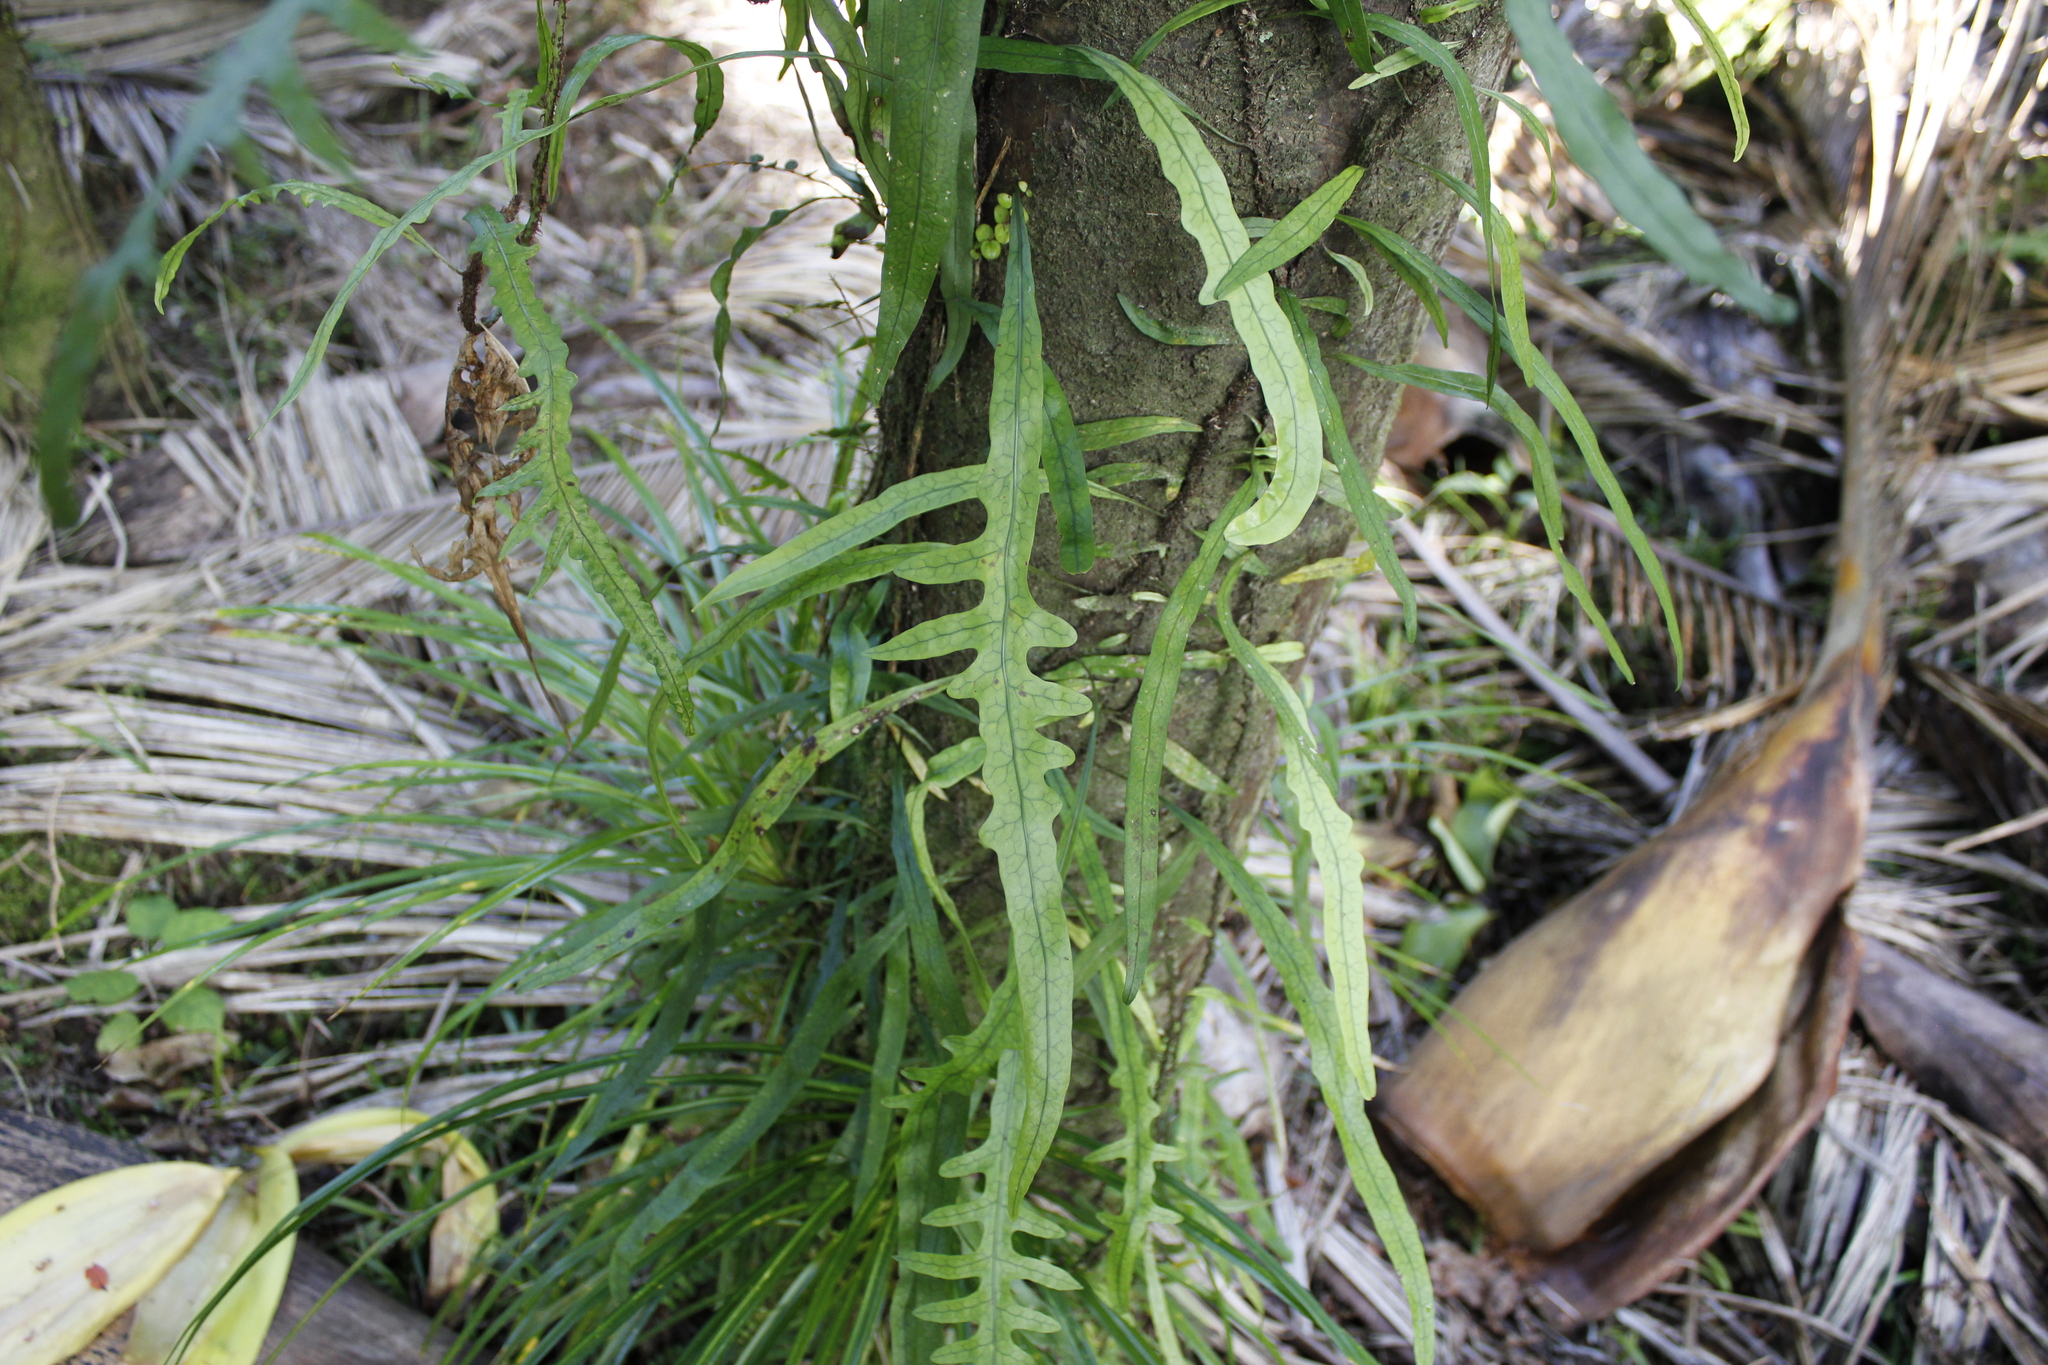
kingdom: Plantae
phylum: Tracheophyta
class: Polypodiopsida
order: Polypodiales
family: Polypodiaceae
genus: Lecanopteris
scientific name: Lecanopteris scandens
